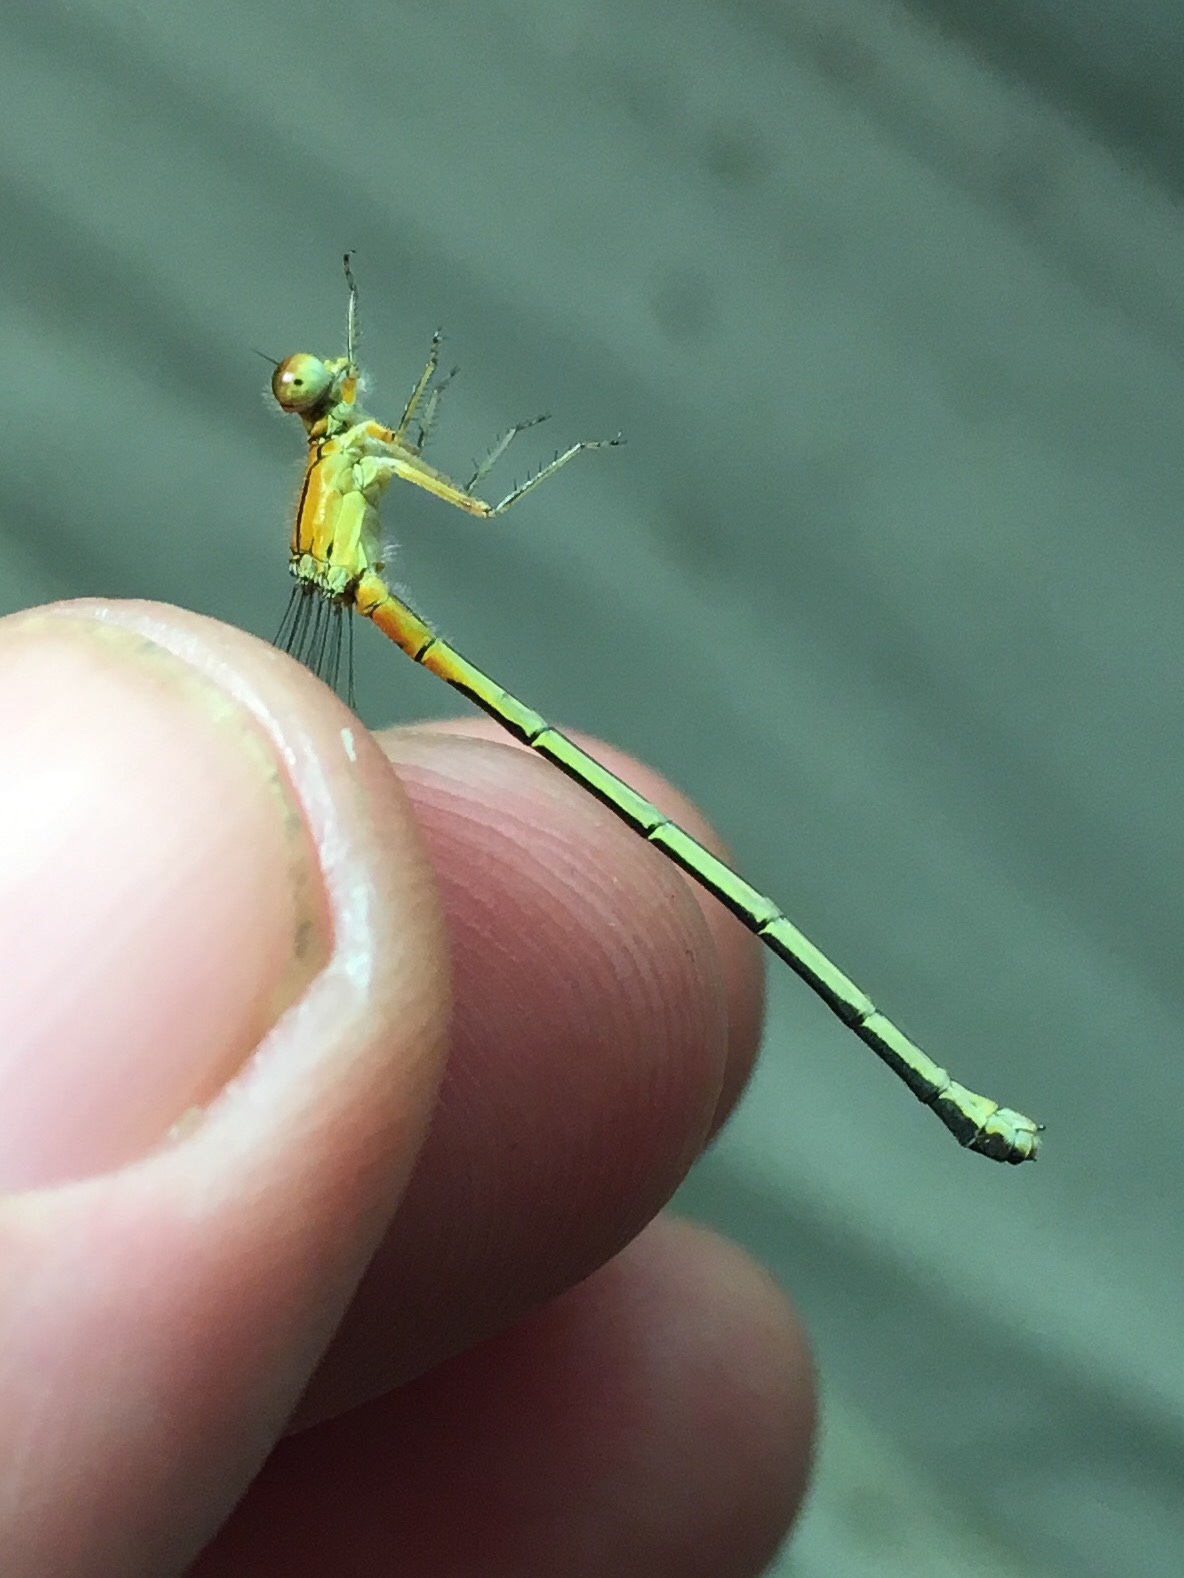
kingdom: Animalia
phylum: Arthropoda
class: Insecta
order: Odonata
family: Coenagrionidae
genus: Ischnura
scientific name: Ischnura verticalis
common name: Eastern forktail
